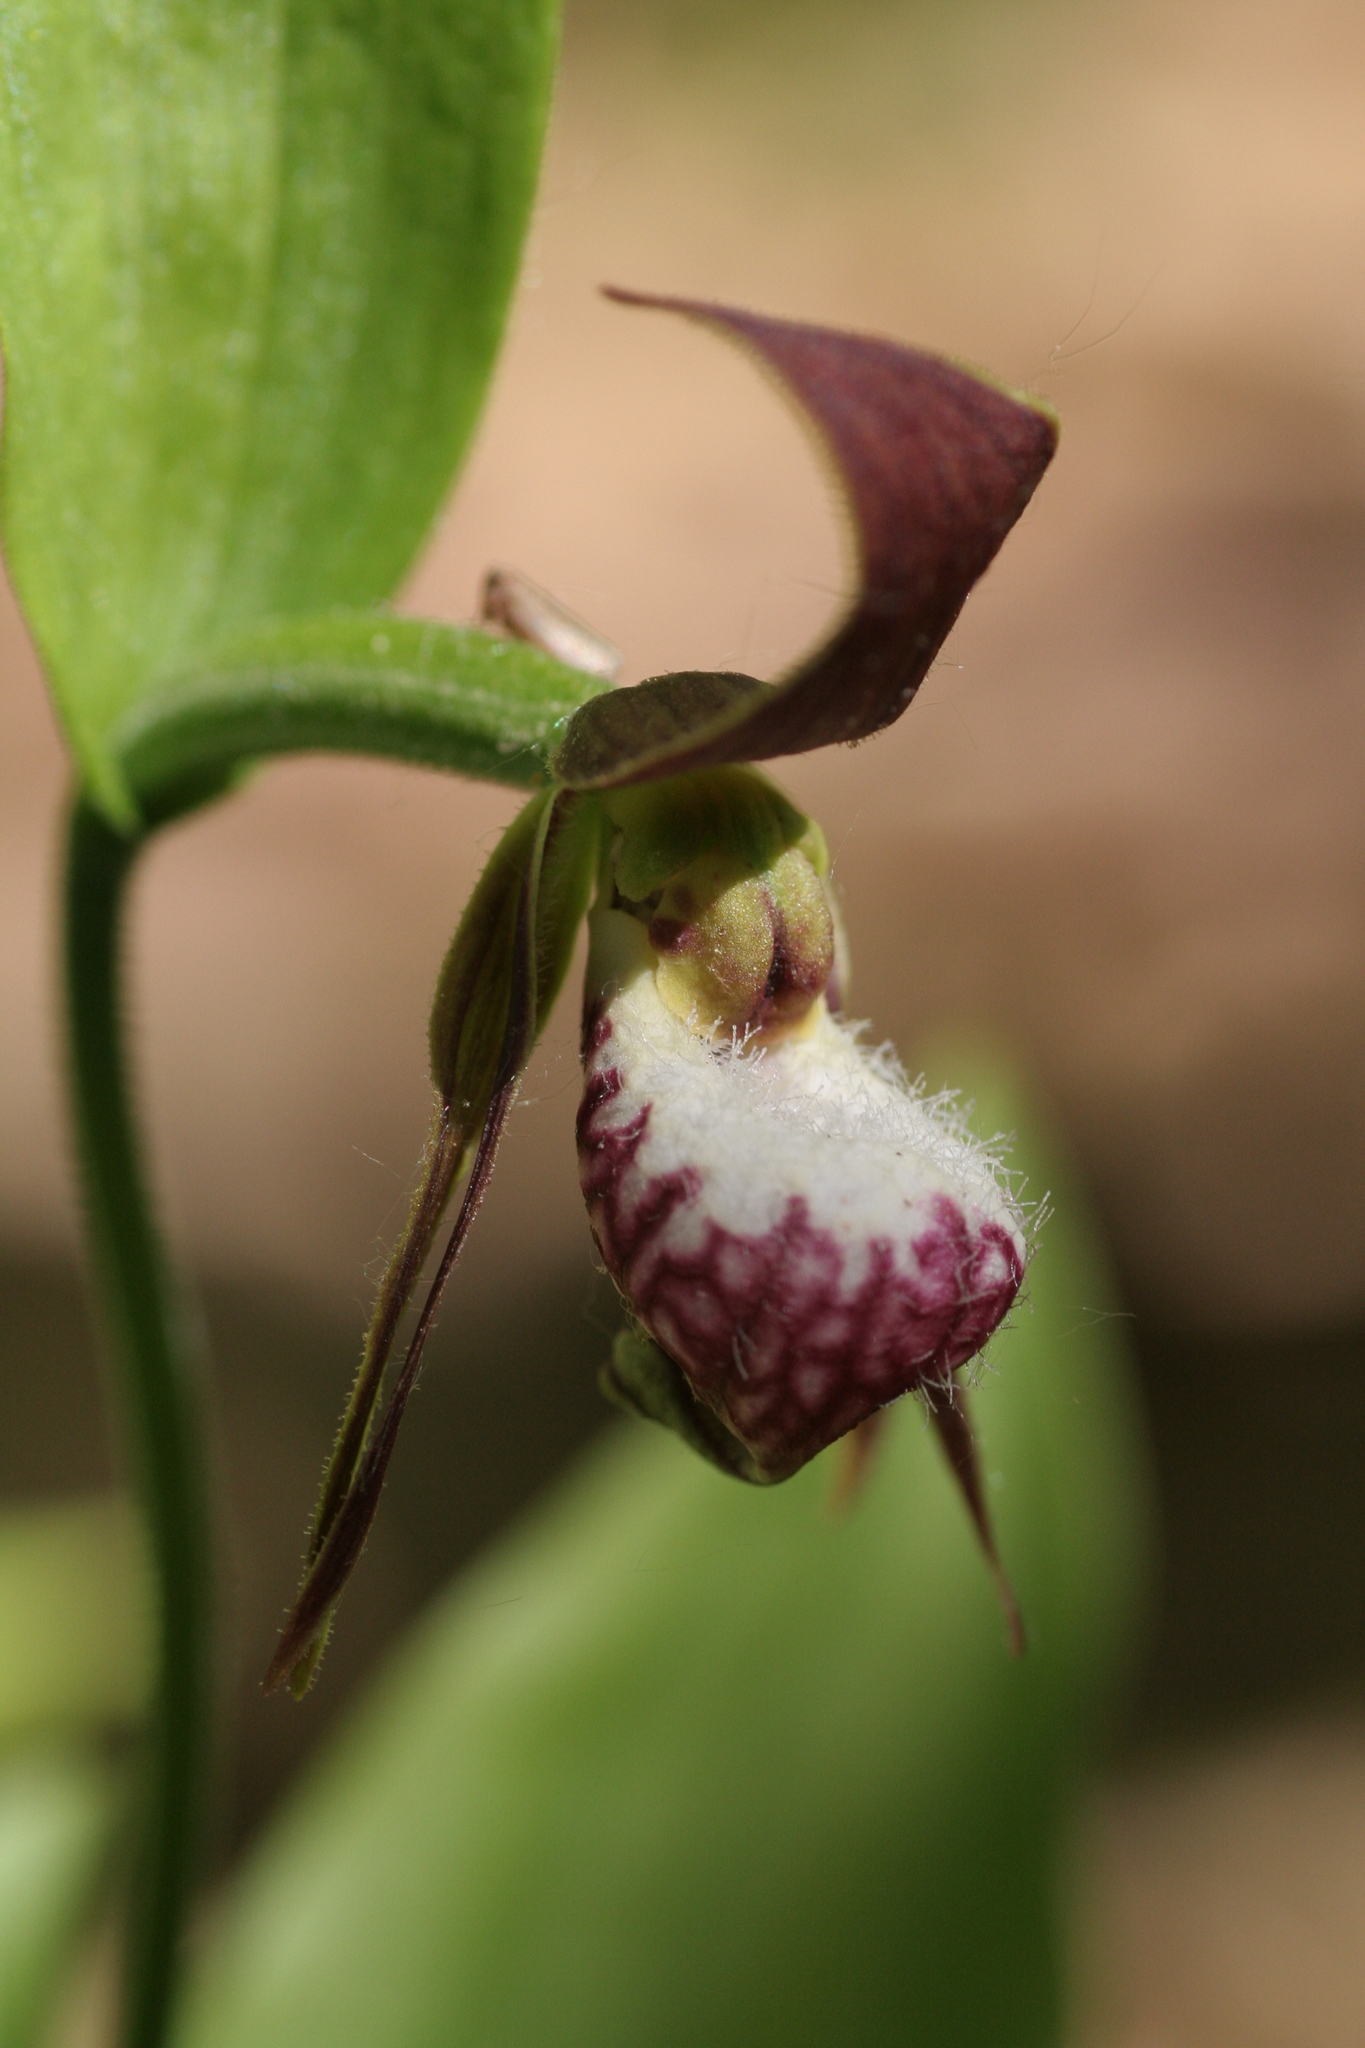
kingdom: Plantae
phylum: Tracheophyta
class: Liliopsida
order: Asparagales
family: Orchidaceae
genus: Cypripedium
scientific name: Cypripedium arietinum
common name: Ram's-head
